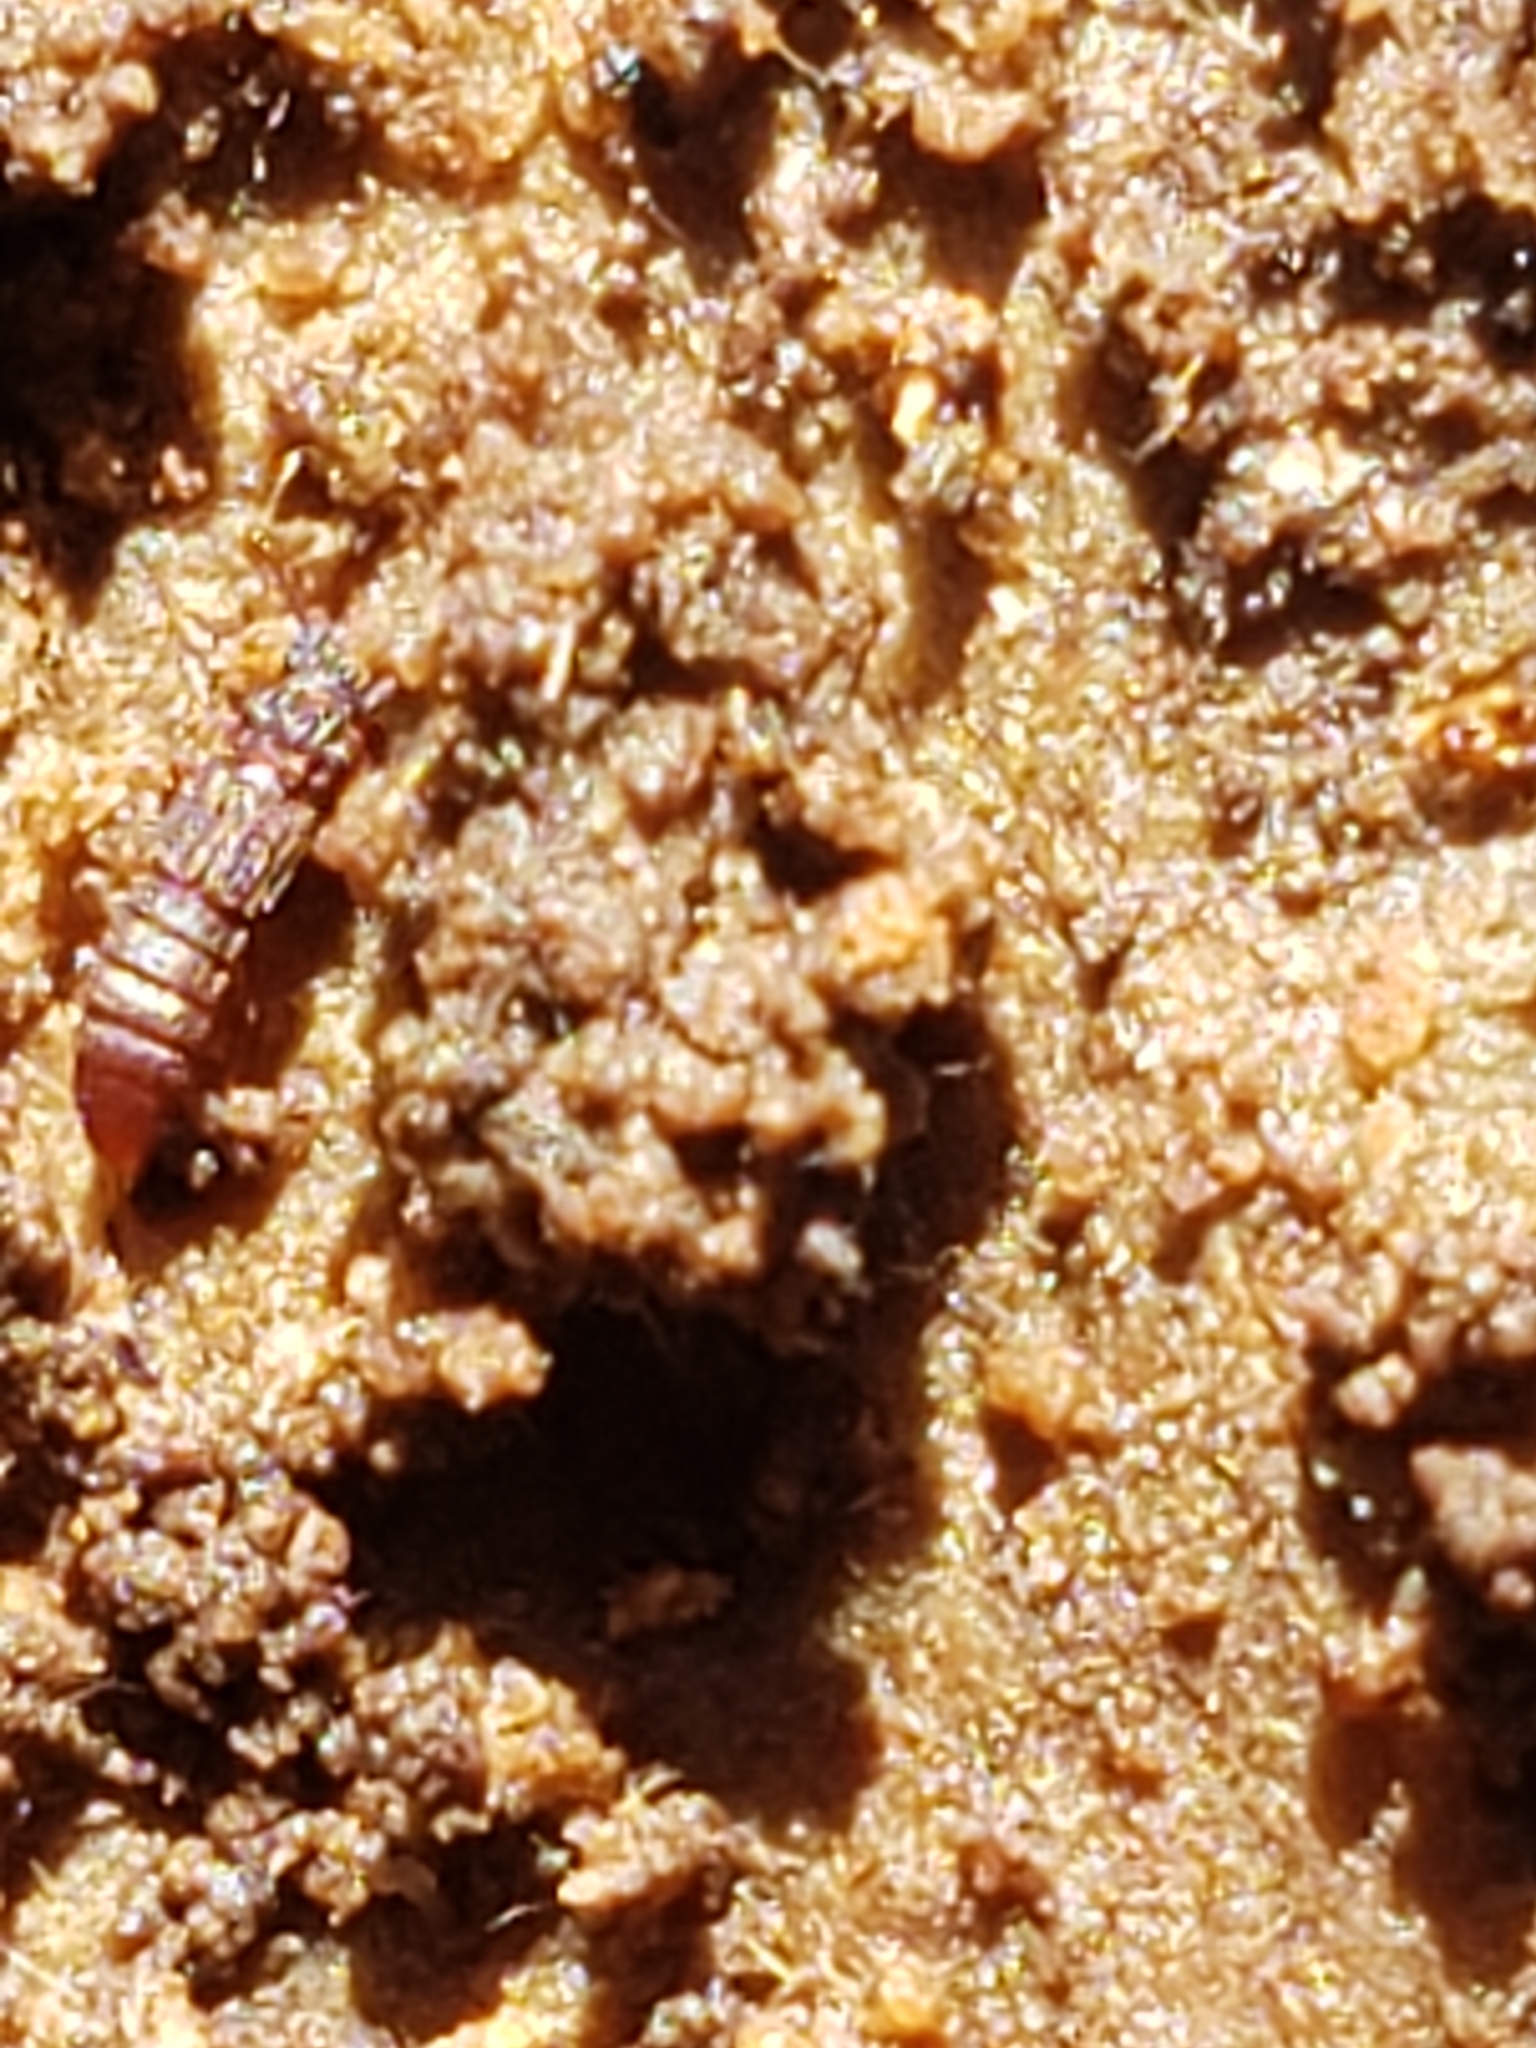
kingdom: Animalia
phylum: Arthropoda
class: Insecta
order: Coleoptera
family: Staphylinidae
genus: Thoracophorus
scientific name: Thoracophorus costalis
